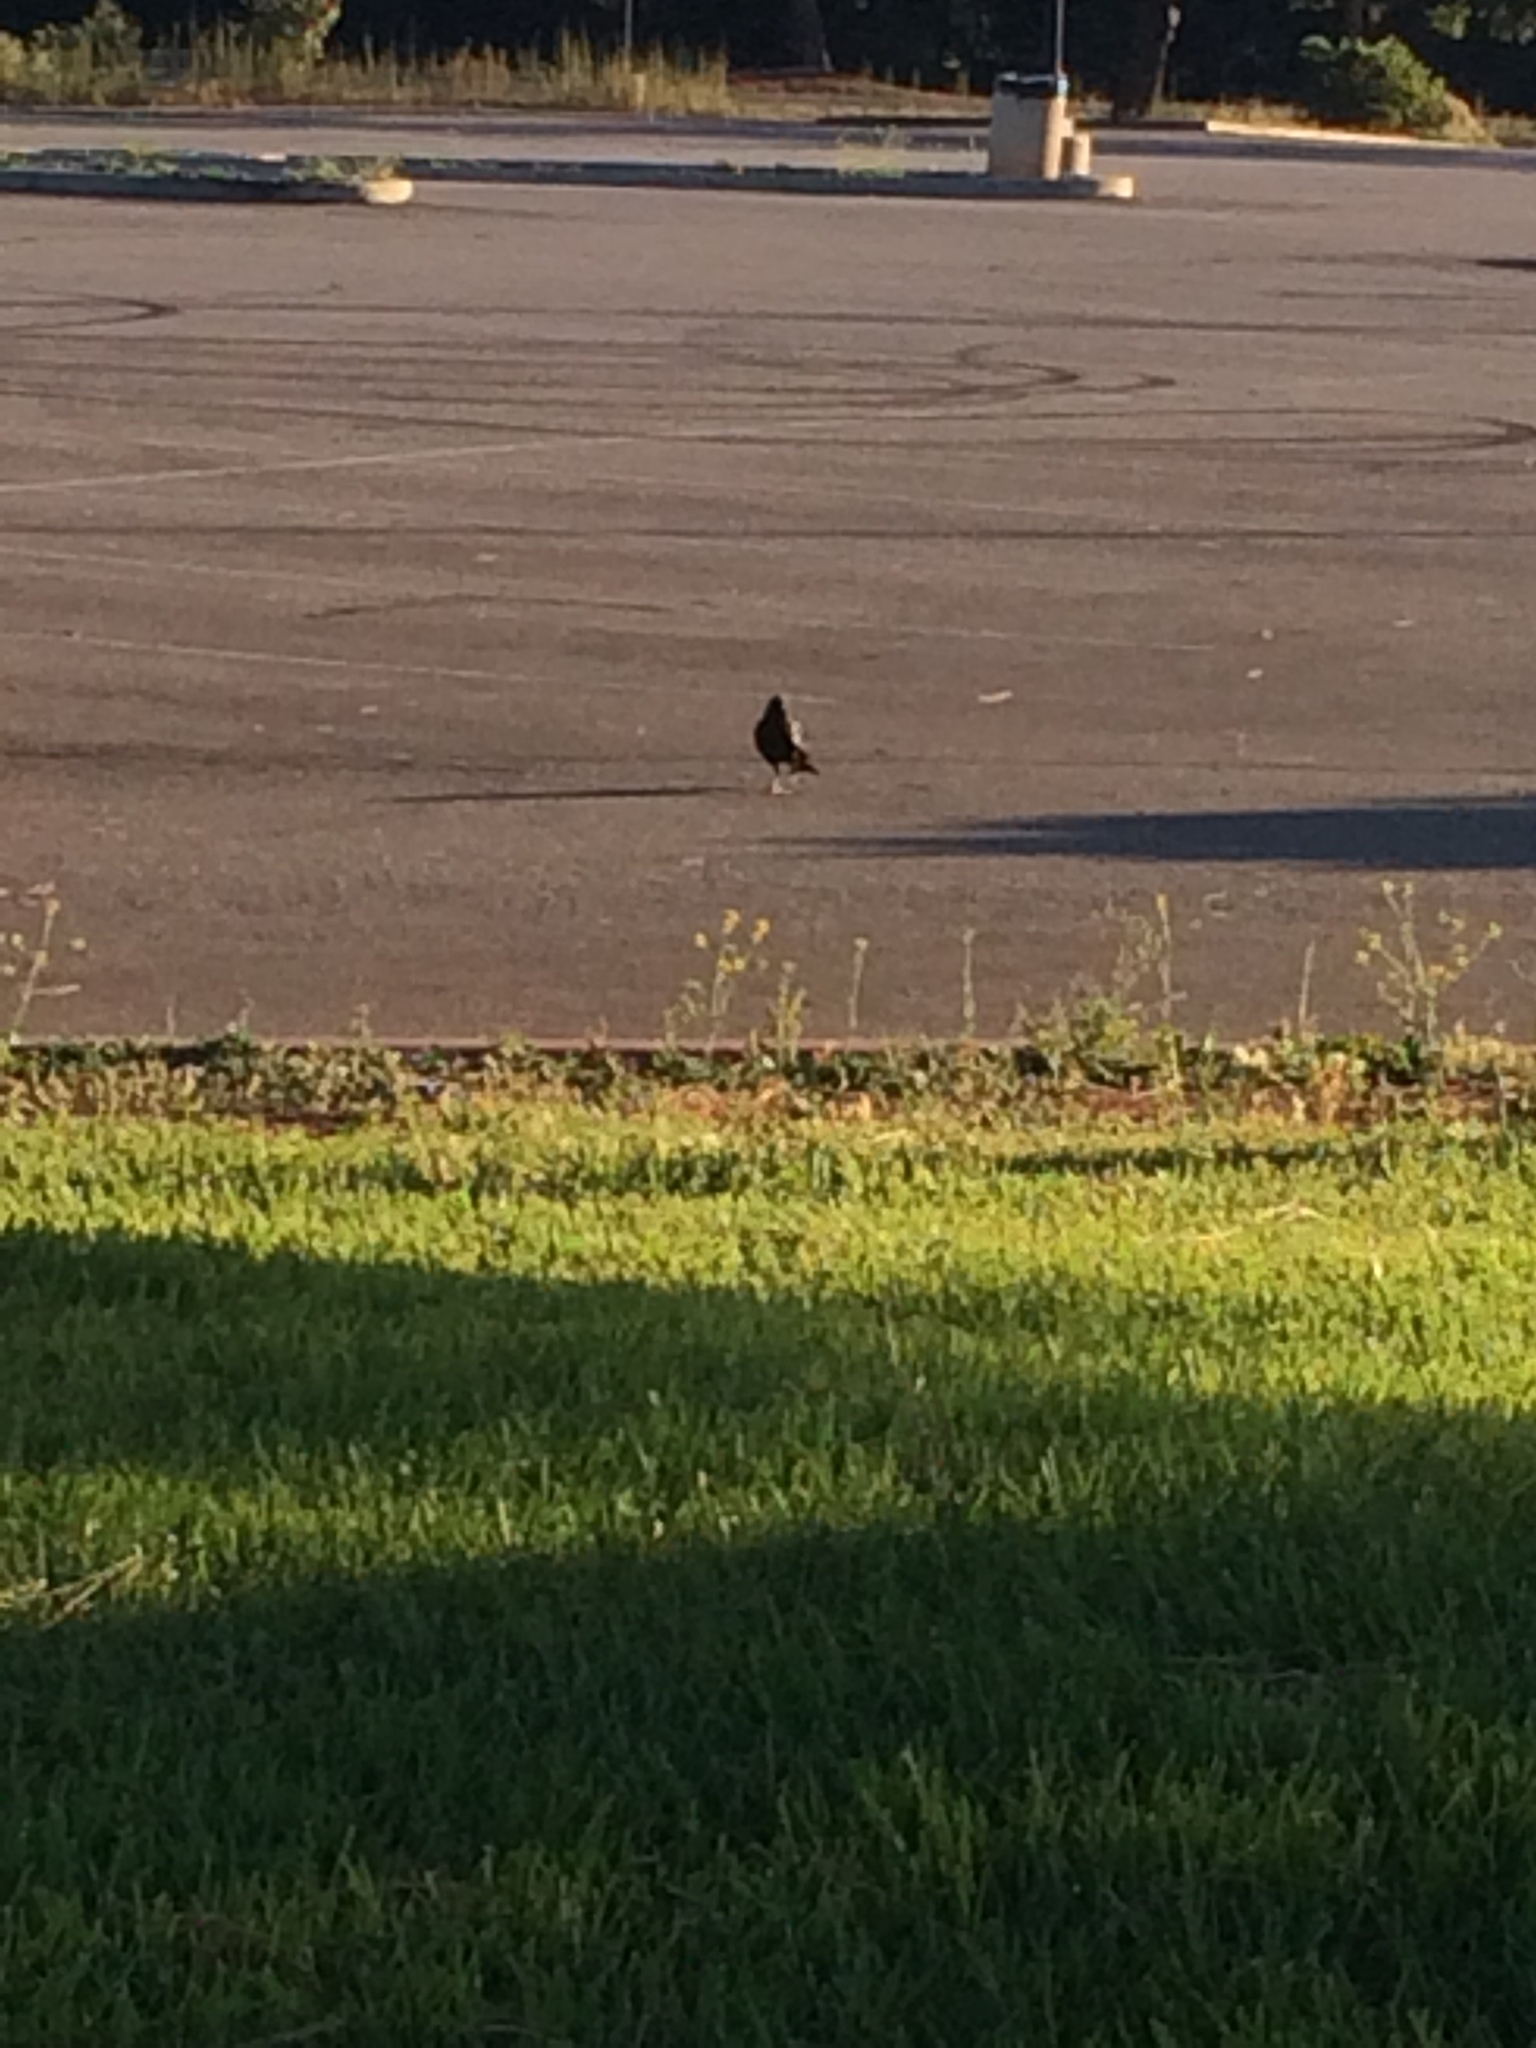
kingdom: Animalia
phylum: Chordata
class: Aves
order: Passeriformes
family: Corvidae
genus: Corvus
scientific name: Corvus brachyrhynchos
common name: American crow
